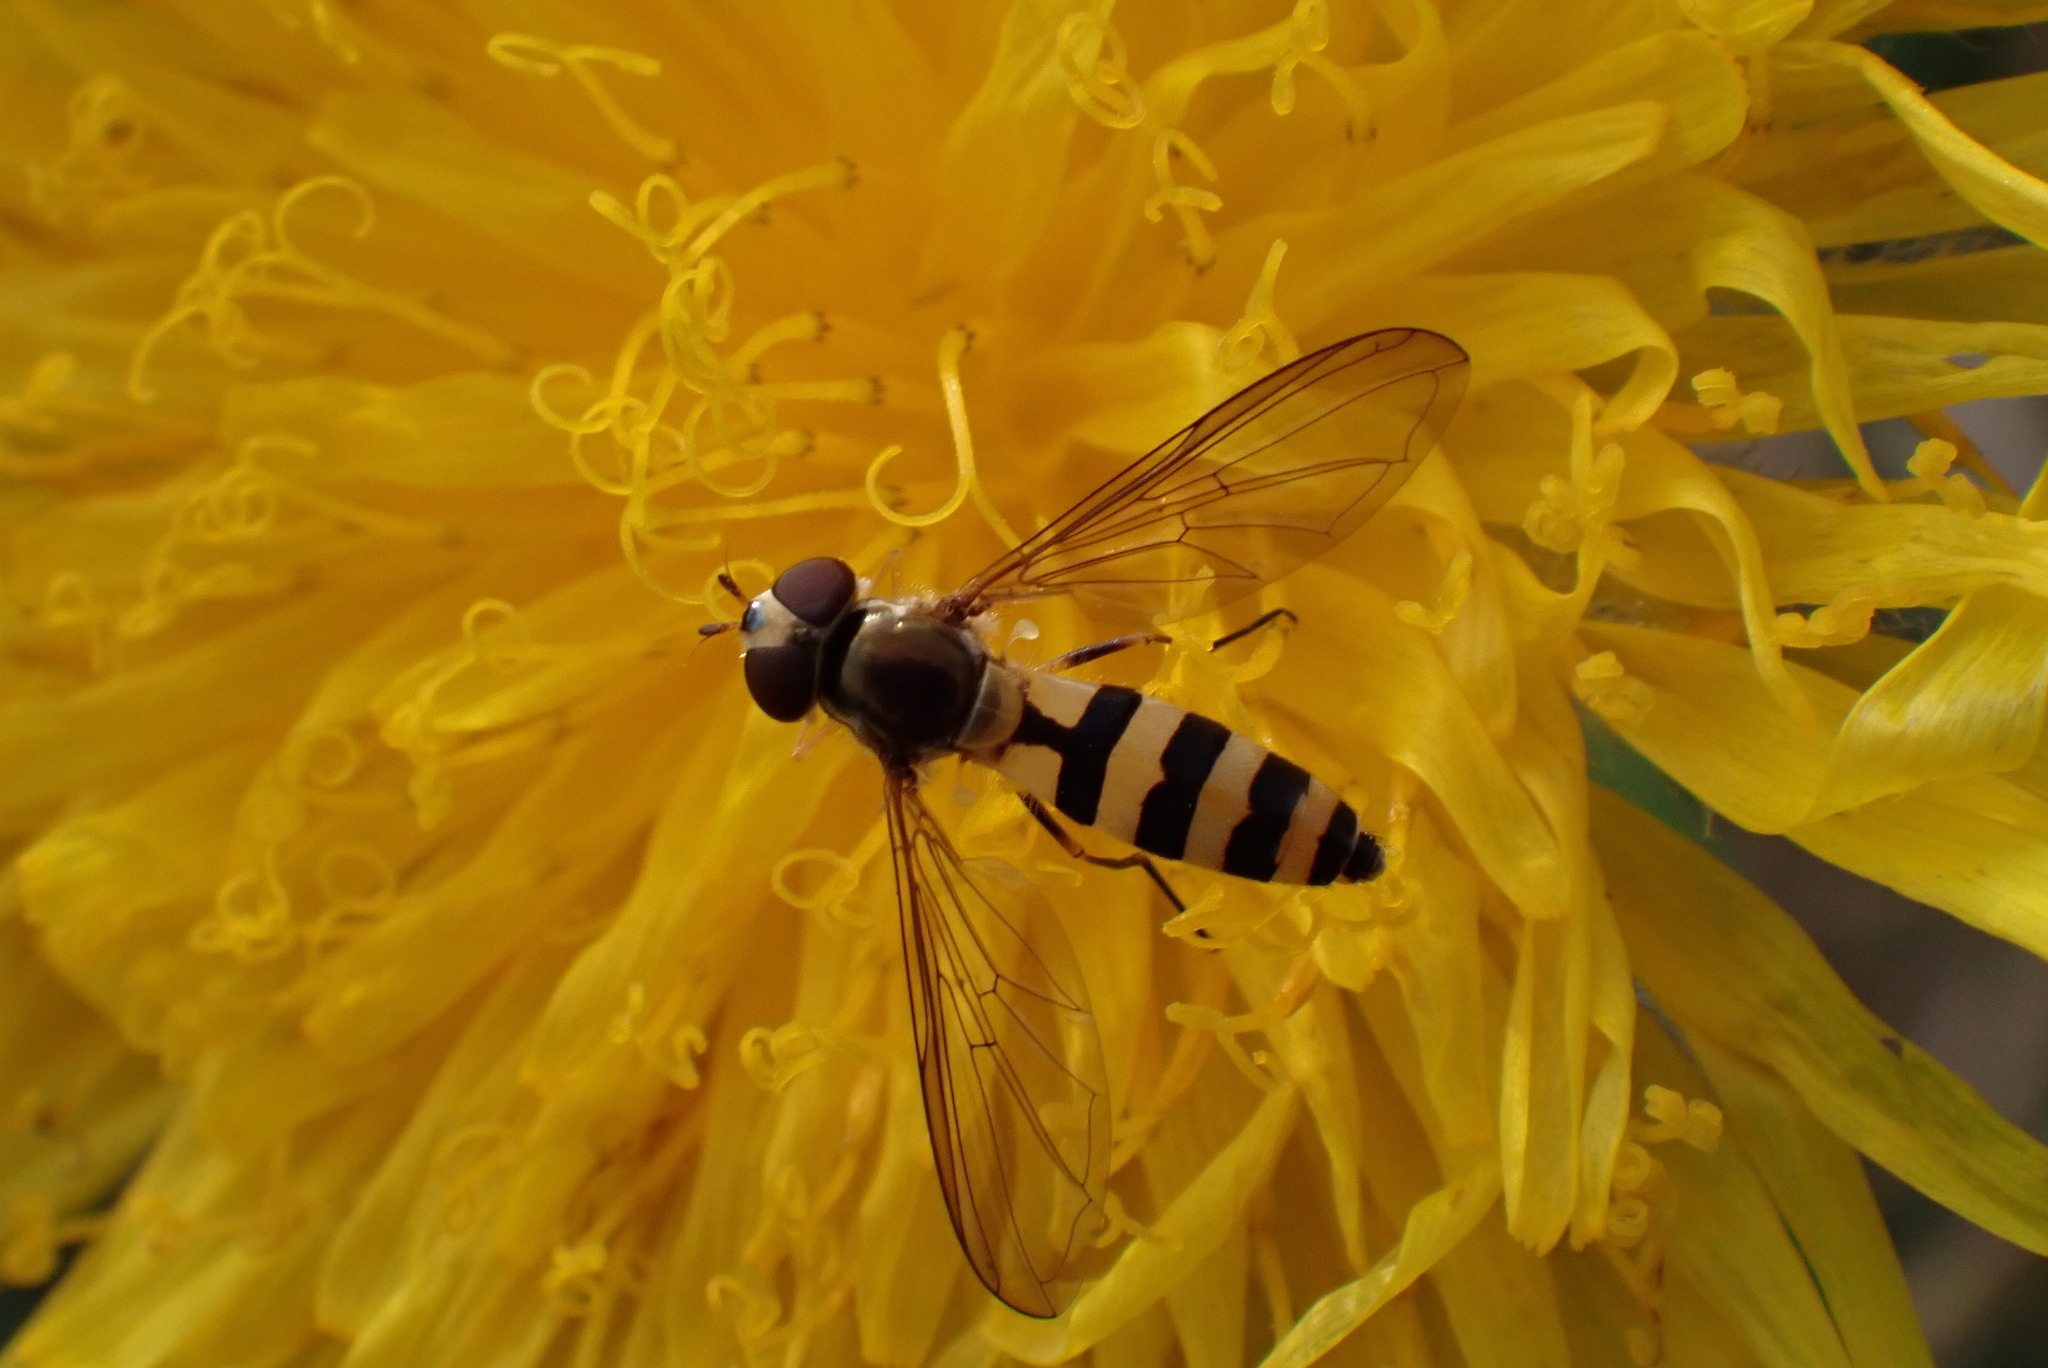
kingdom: Animalia
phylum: Arthropoda
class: Insecta
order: Diptera
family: Syrphidae
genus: Meliscaeva
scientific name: Meliscaeva cinctella
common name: American thintail fly
